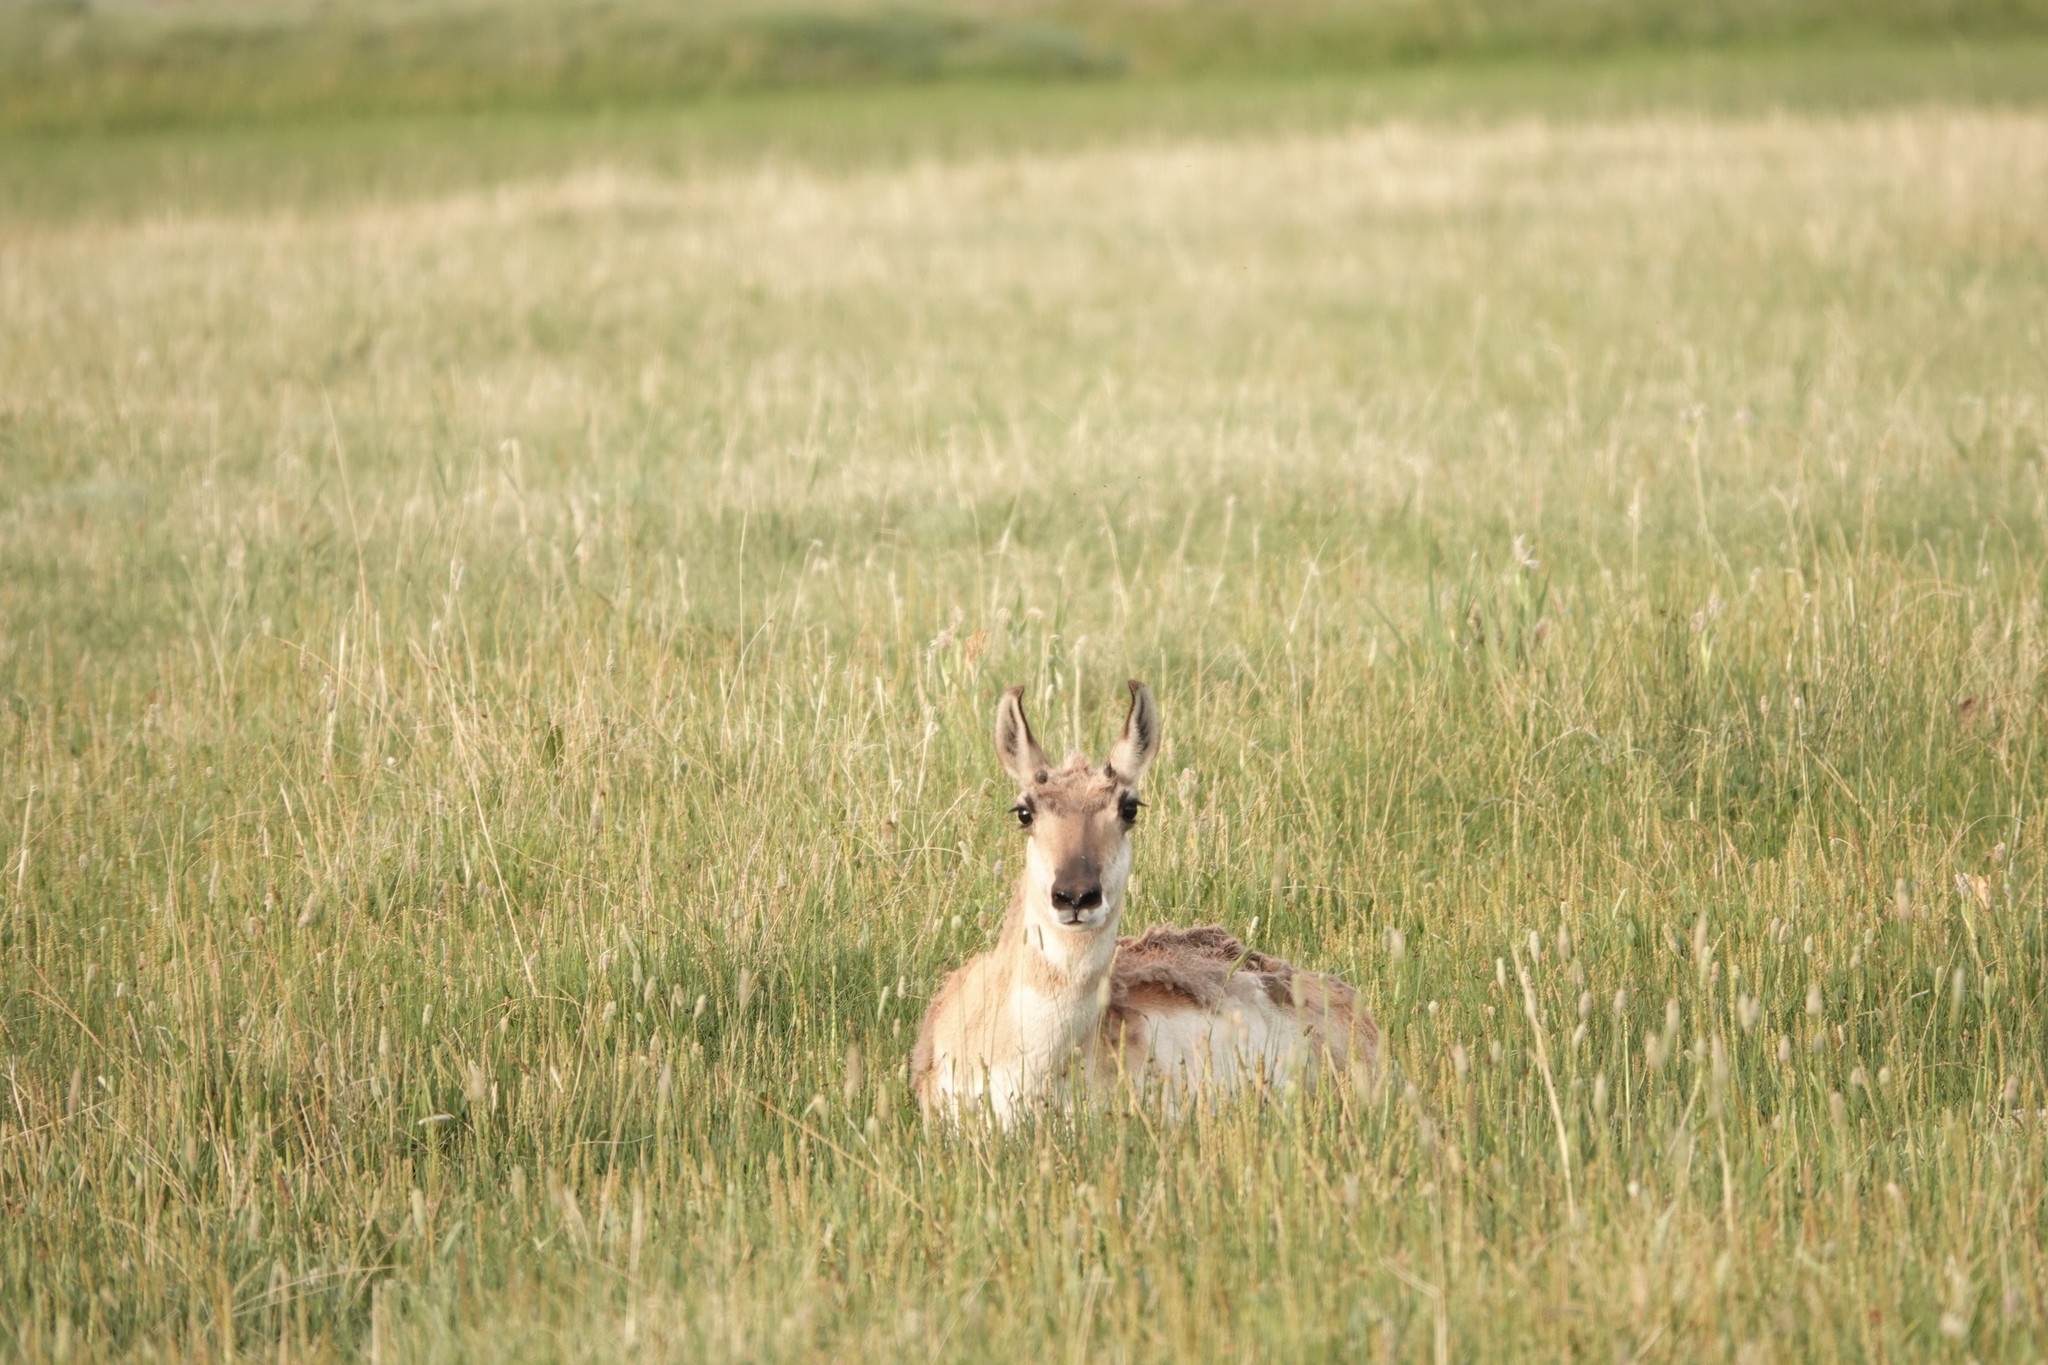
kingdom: Animalia
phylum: Chordata
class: Mammalia
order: Artiodactyla
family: Antilocapridae
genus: Antilocapra
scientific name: Antilocapra americana
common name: Pronghorn
